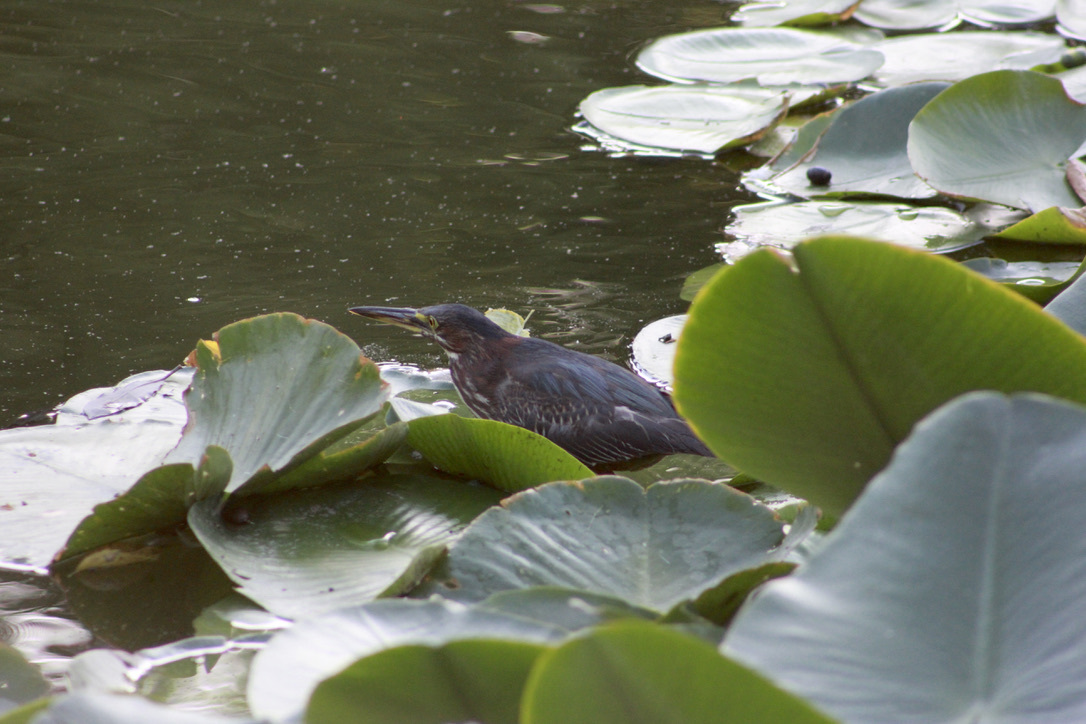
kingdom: Animalia
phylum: Chordata
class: Aves
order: Pelecaniformes
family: Ardeidae
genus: Butorides
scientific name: Butorides virescens
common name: Green heron
